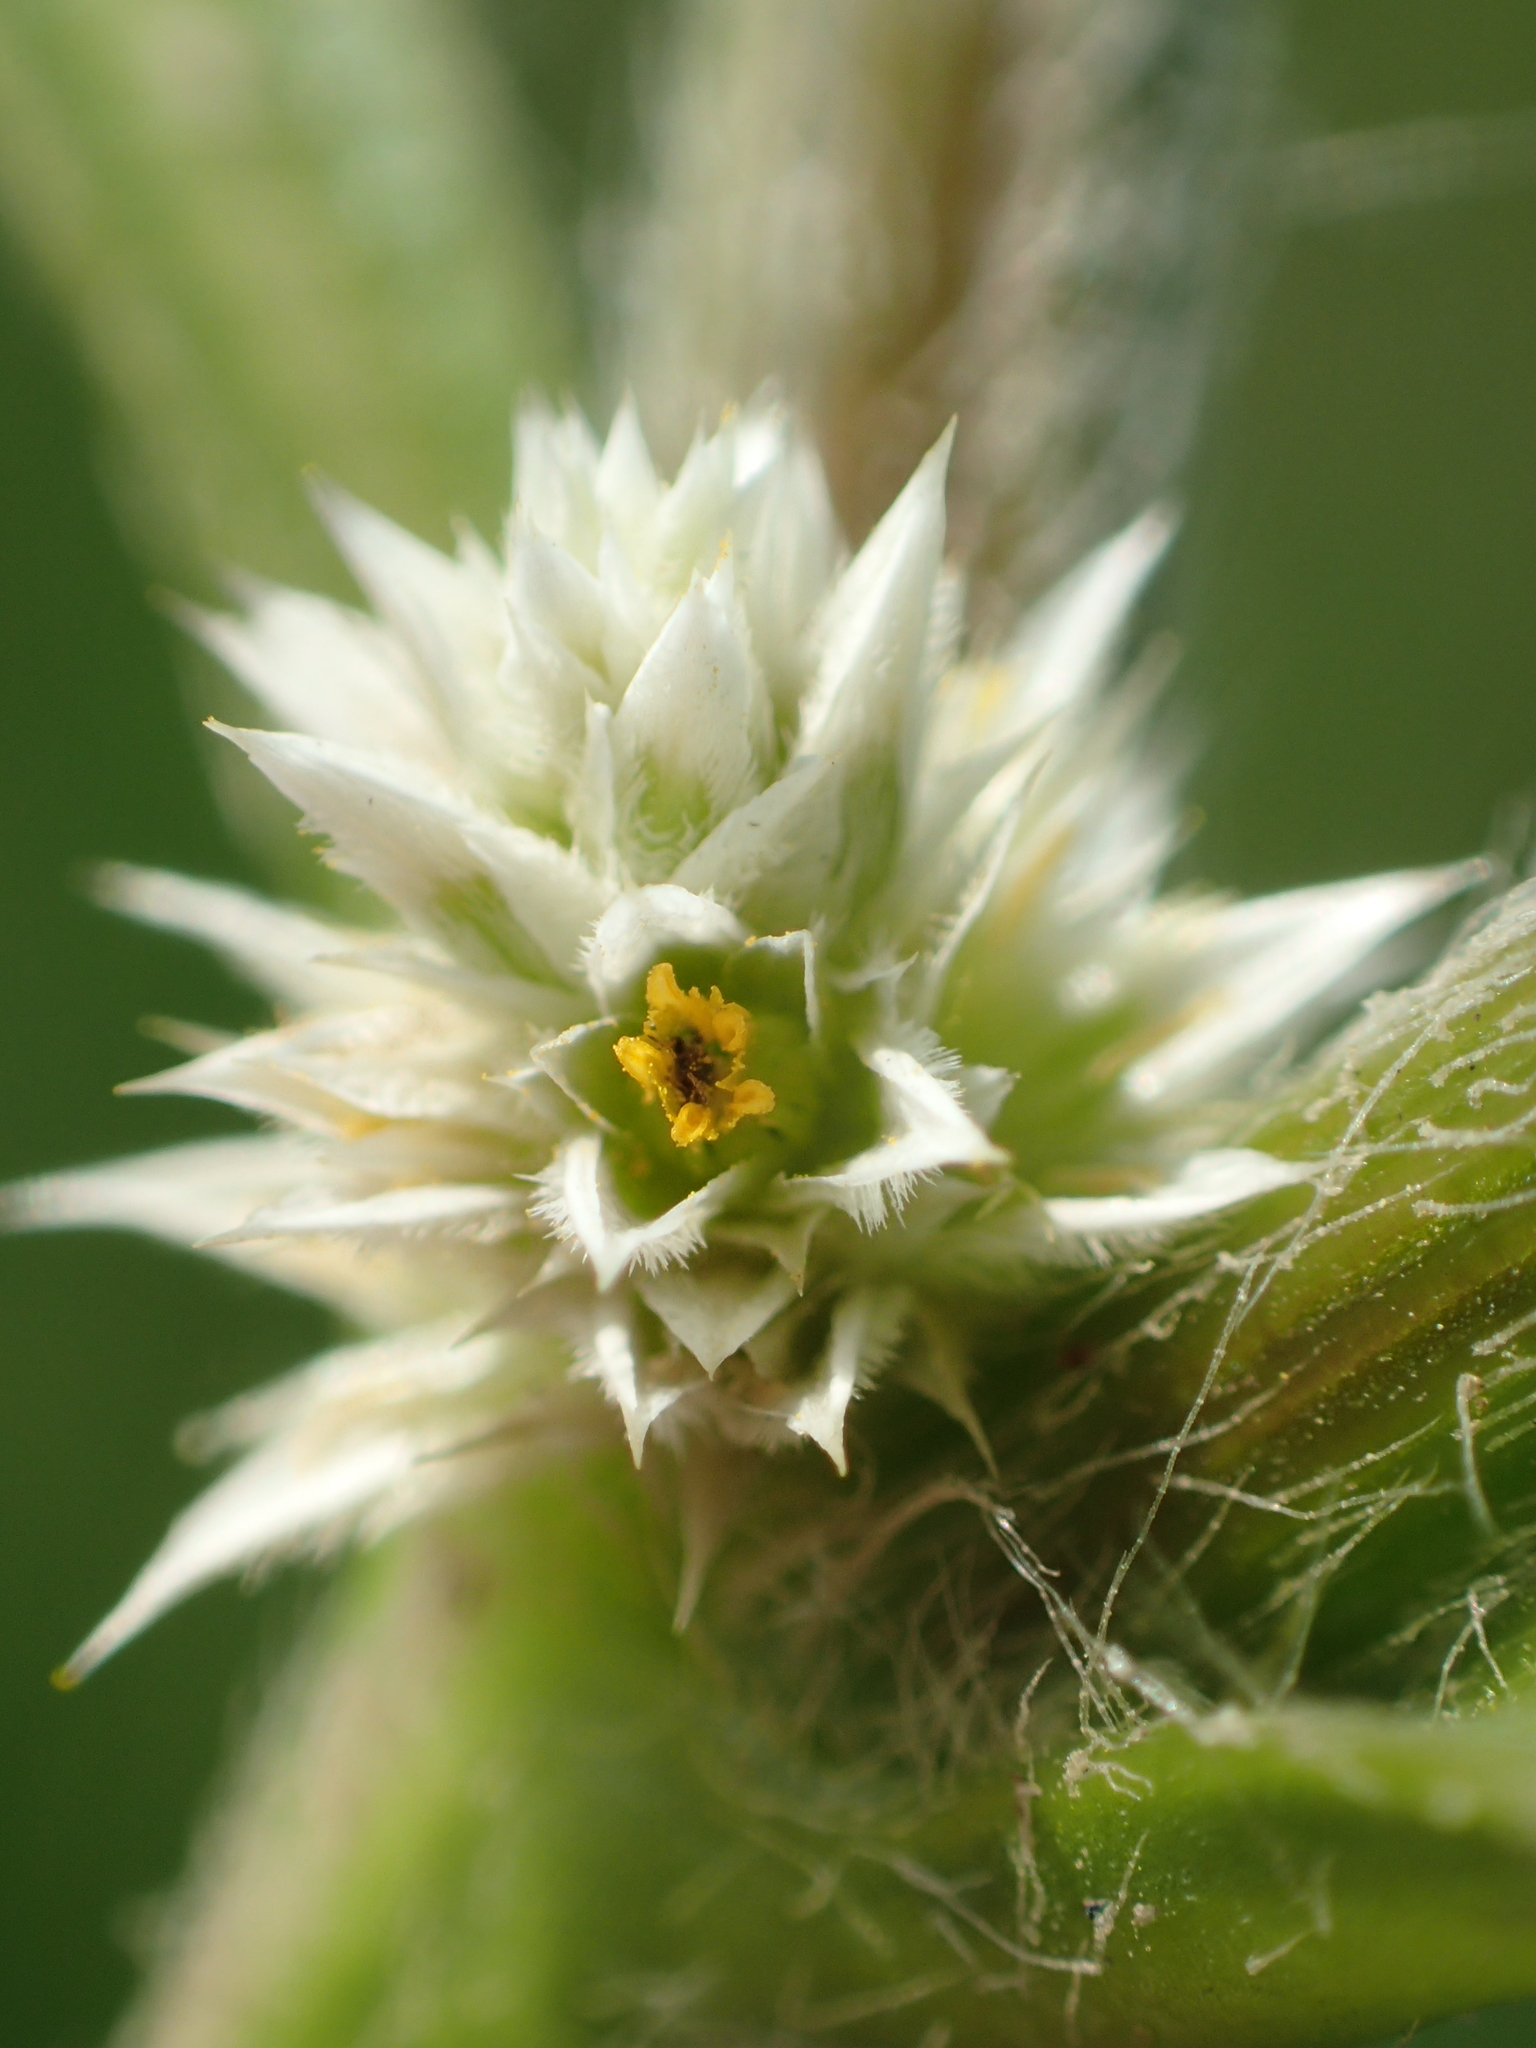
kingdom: Plantae
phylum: Tracheophyta
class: Magnoliopsida
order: Caryophyllales
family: Amaranthaceae
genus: Alternanthera
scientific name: Alternanthera bettzickiana
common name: Calico-plant
